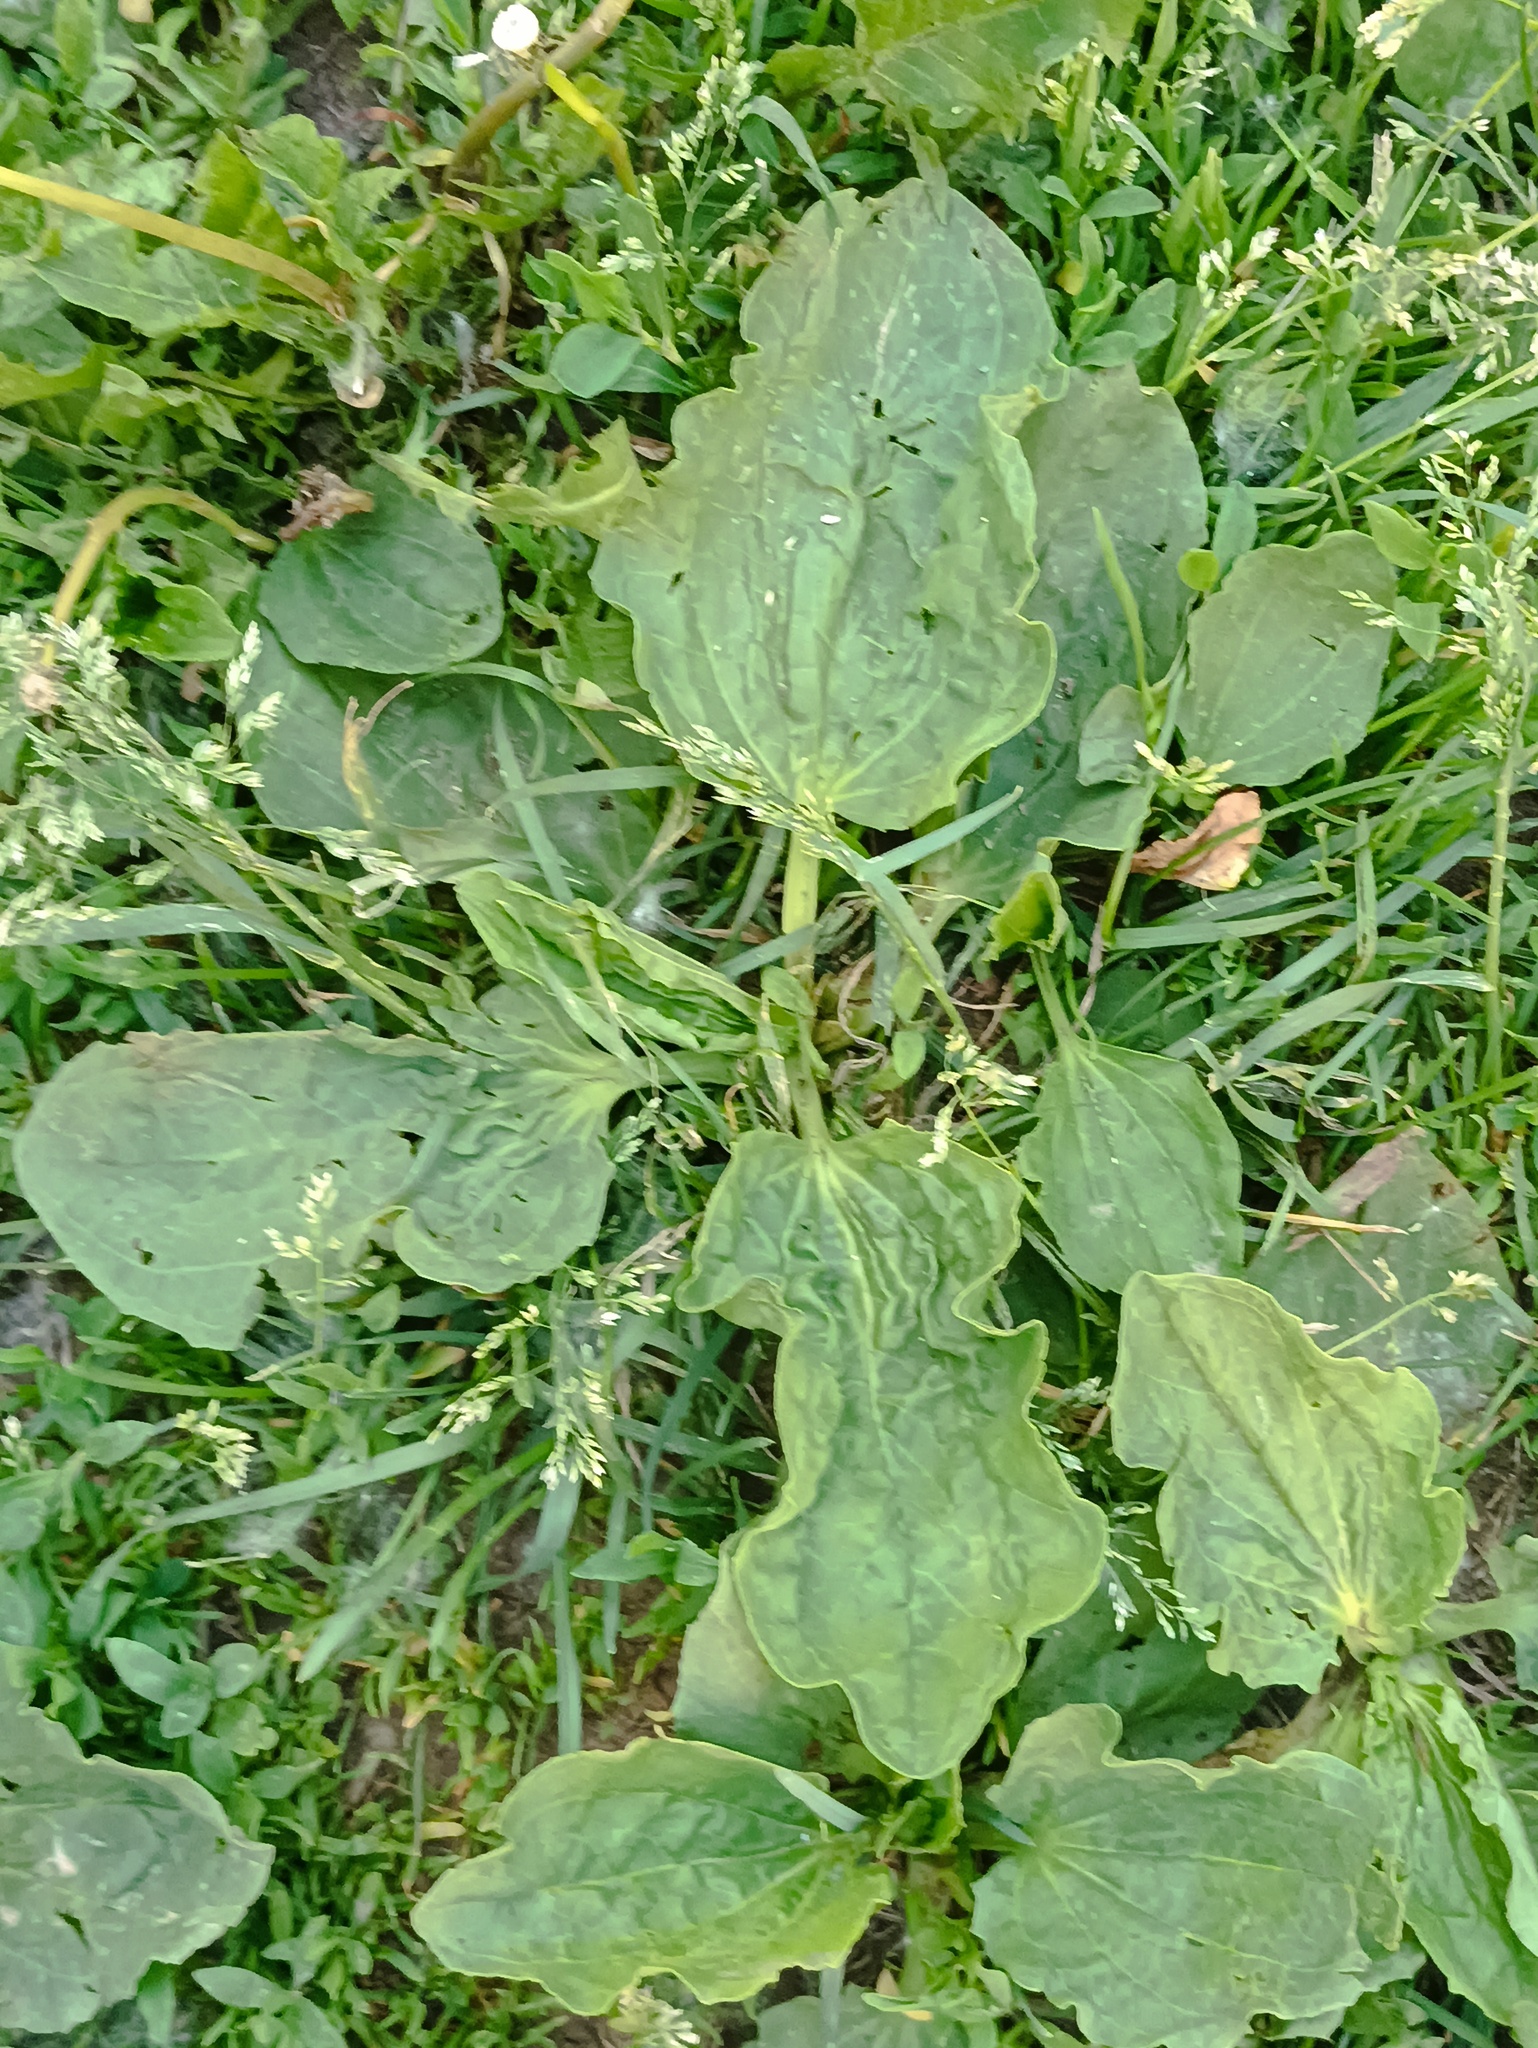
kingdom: Plantae
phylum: Tracheophyta
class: Magnoliopsida
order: Lamiales
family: Plantaginaceae
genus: Plantago
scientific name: Plantago major
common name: Common plantain
